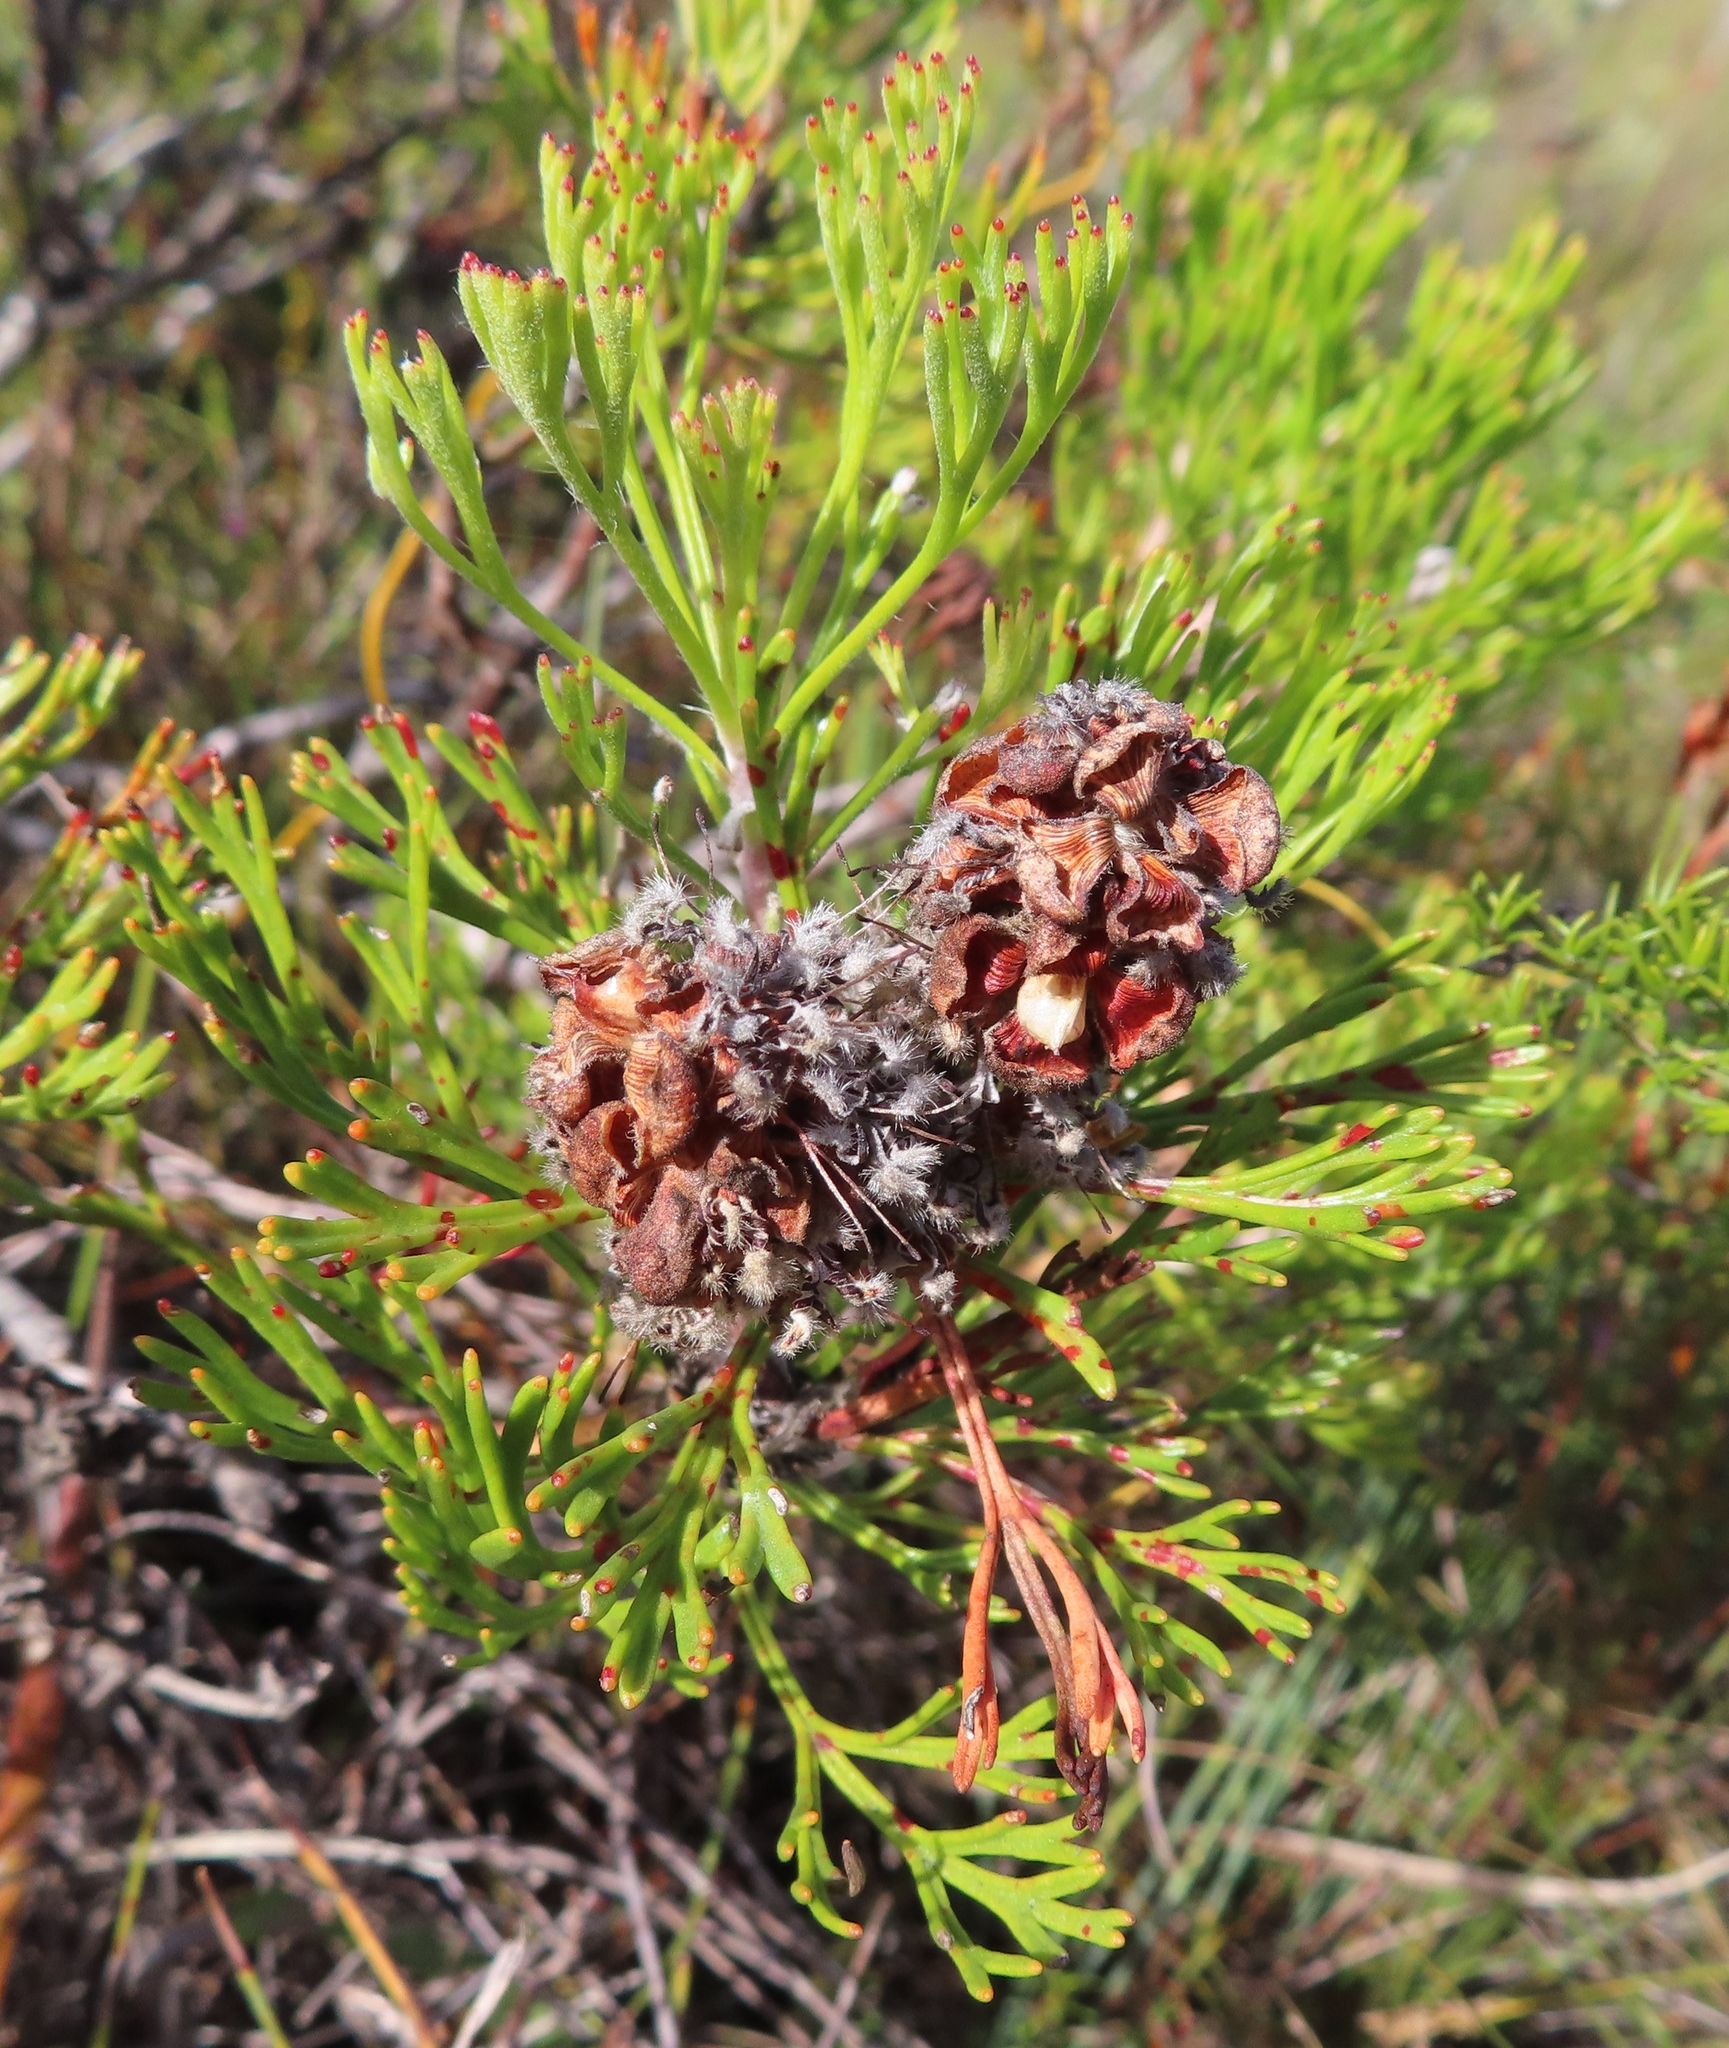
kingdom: Plantae
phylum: Tracheophyta
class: Magnoliopsida
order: Proteales
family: Proteaceae
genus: Paranomus
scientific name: Paranomus abrotanifolius
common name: Bredasdorp sceptre
